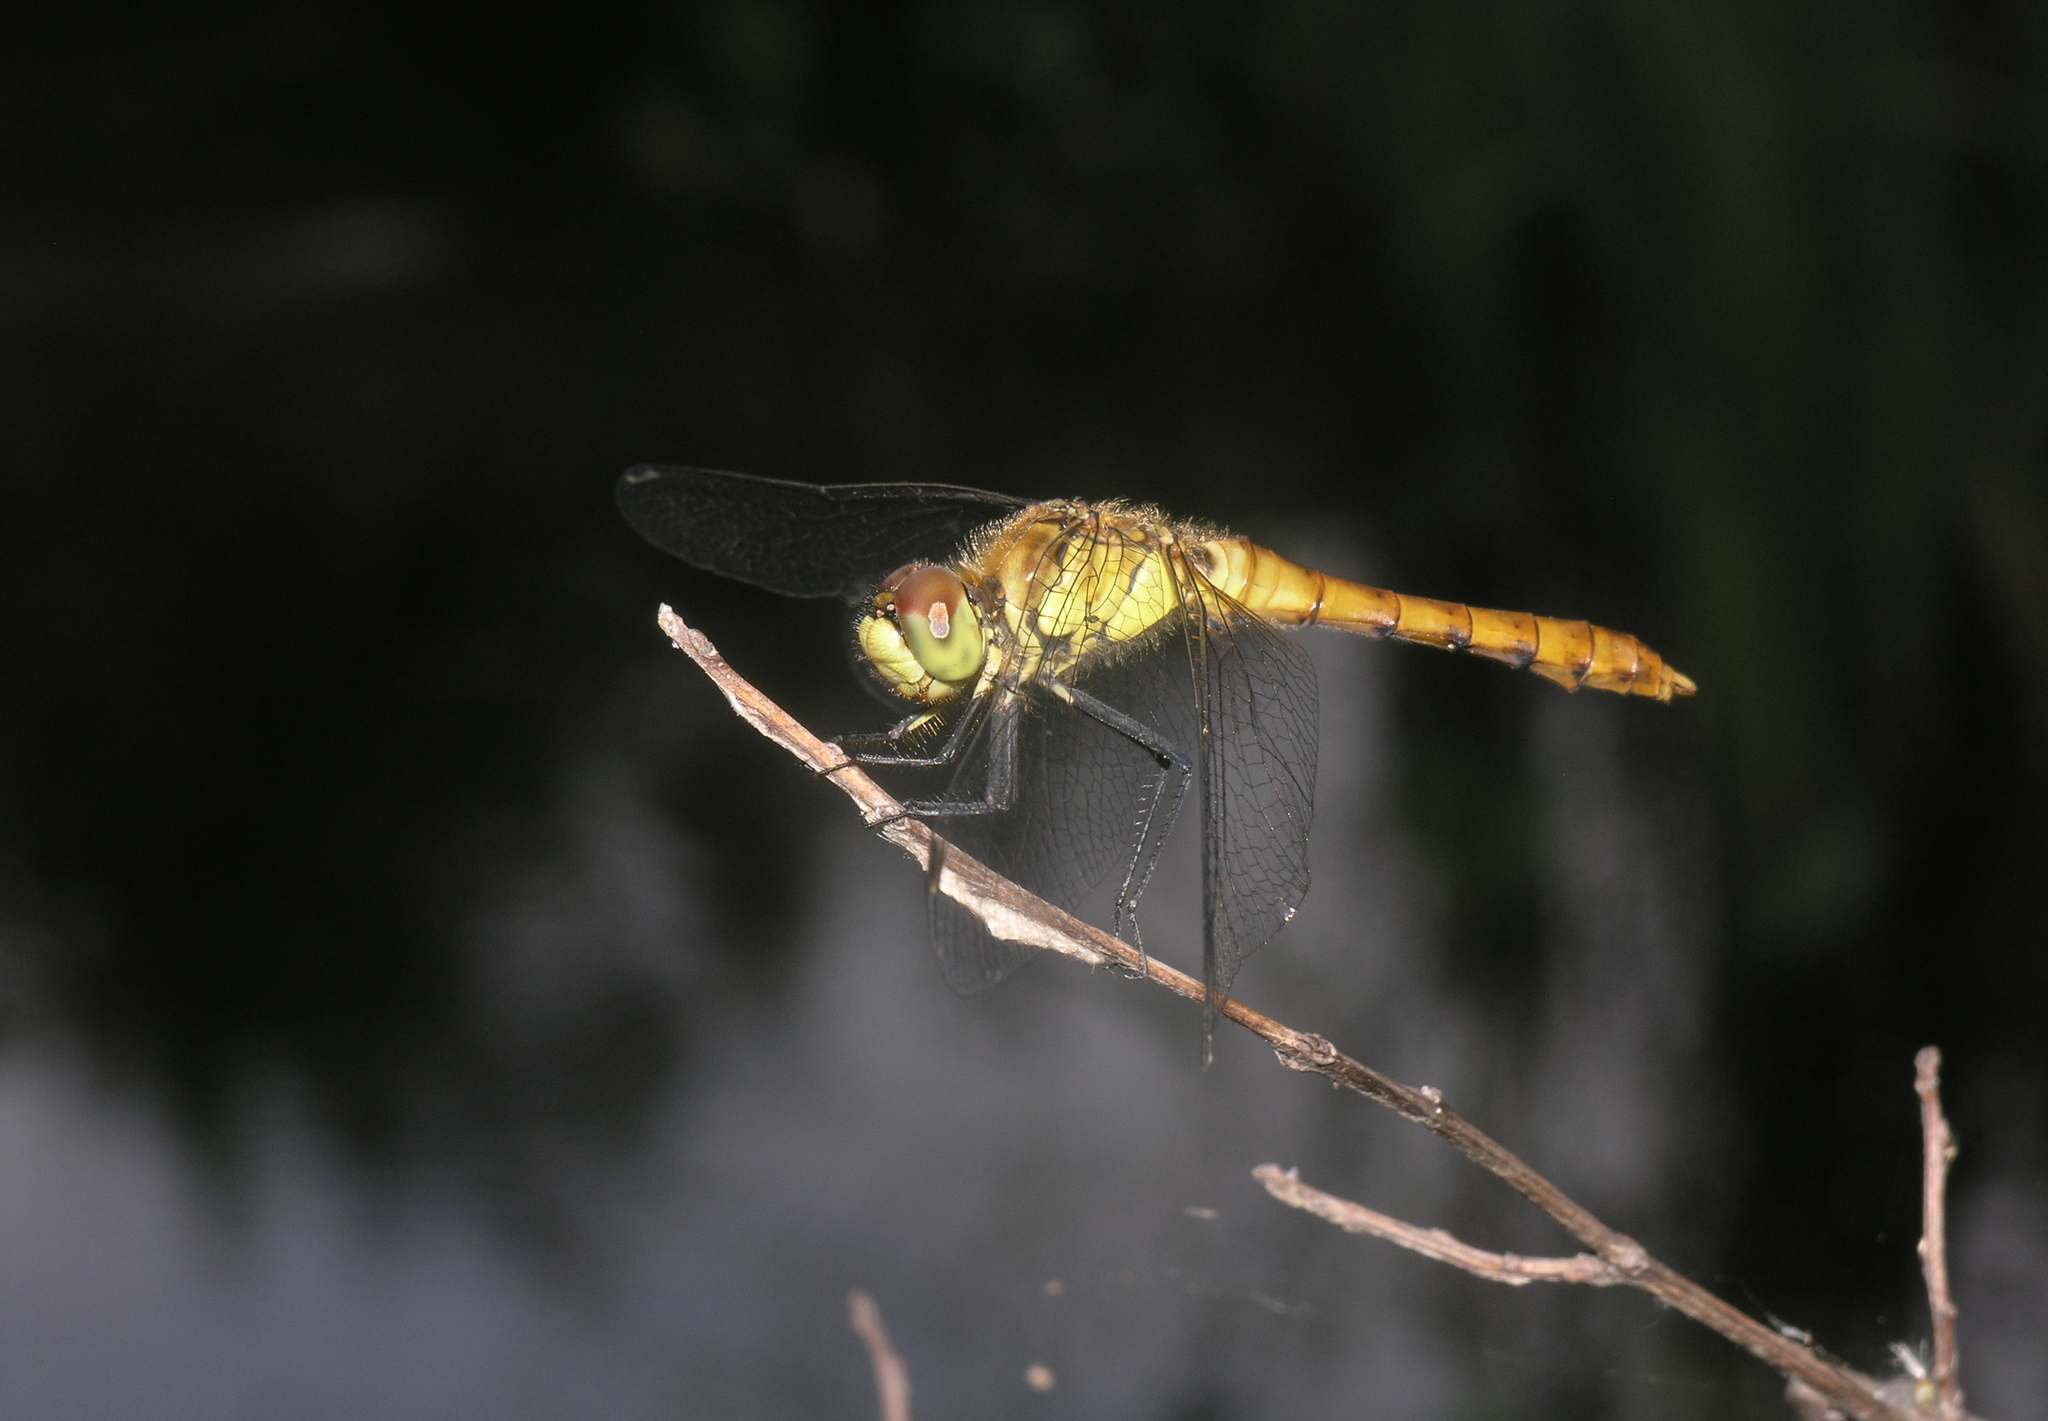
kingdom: Animalia
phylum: Arthropoda
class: Insecta
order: Odonata
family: Libellulidae
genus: Sympetrum
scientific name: Sympetrum cordulegaster
